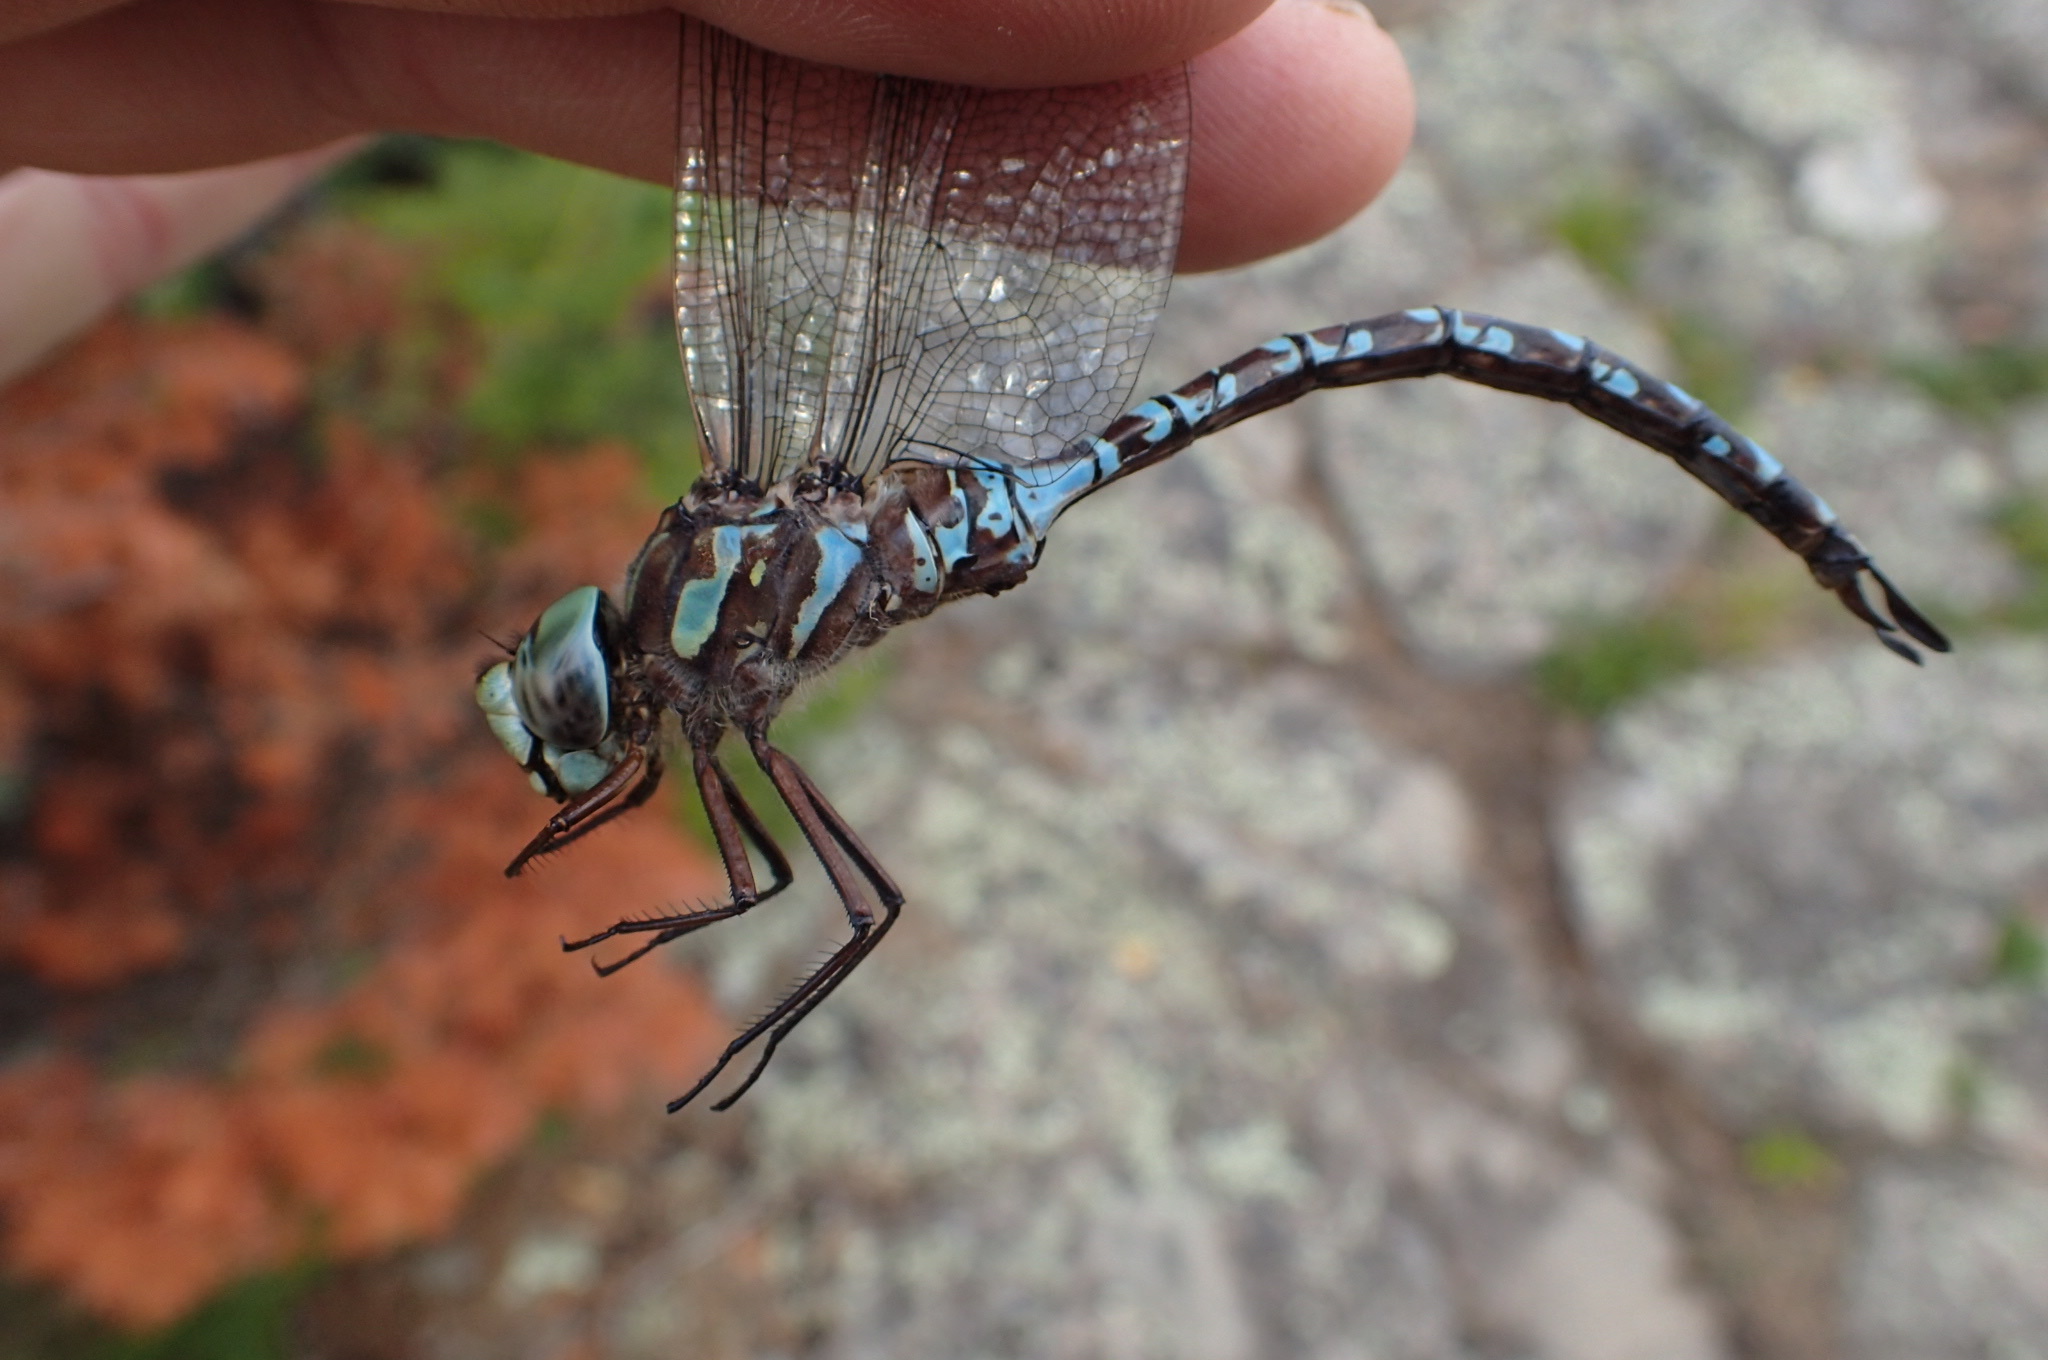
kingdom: Animalia
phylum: Arthropoda
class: Insecta
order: Odonata
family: Aeshnidae
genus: Aeshna
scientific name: Aeshna canadensis
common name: Canada darner
